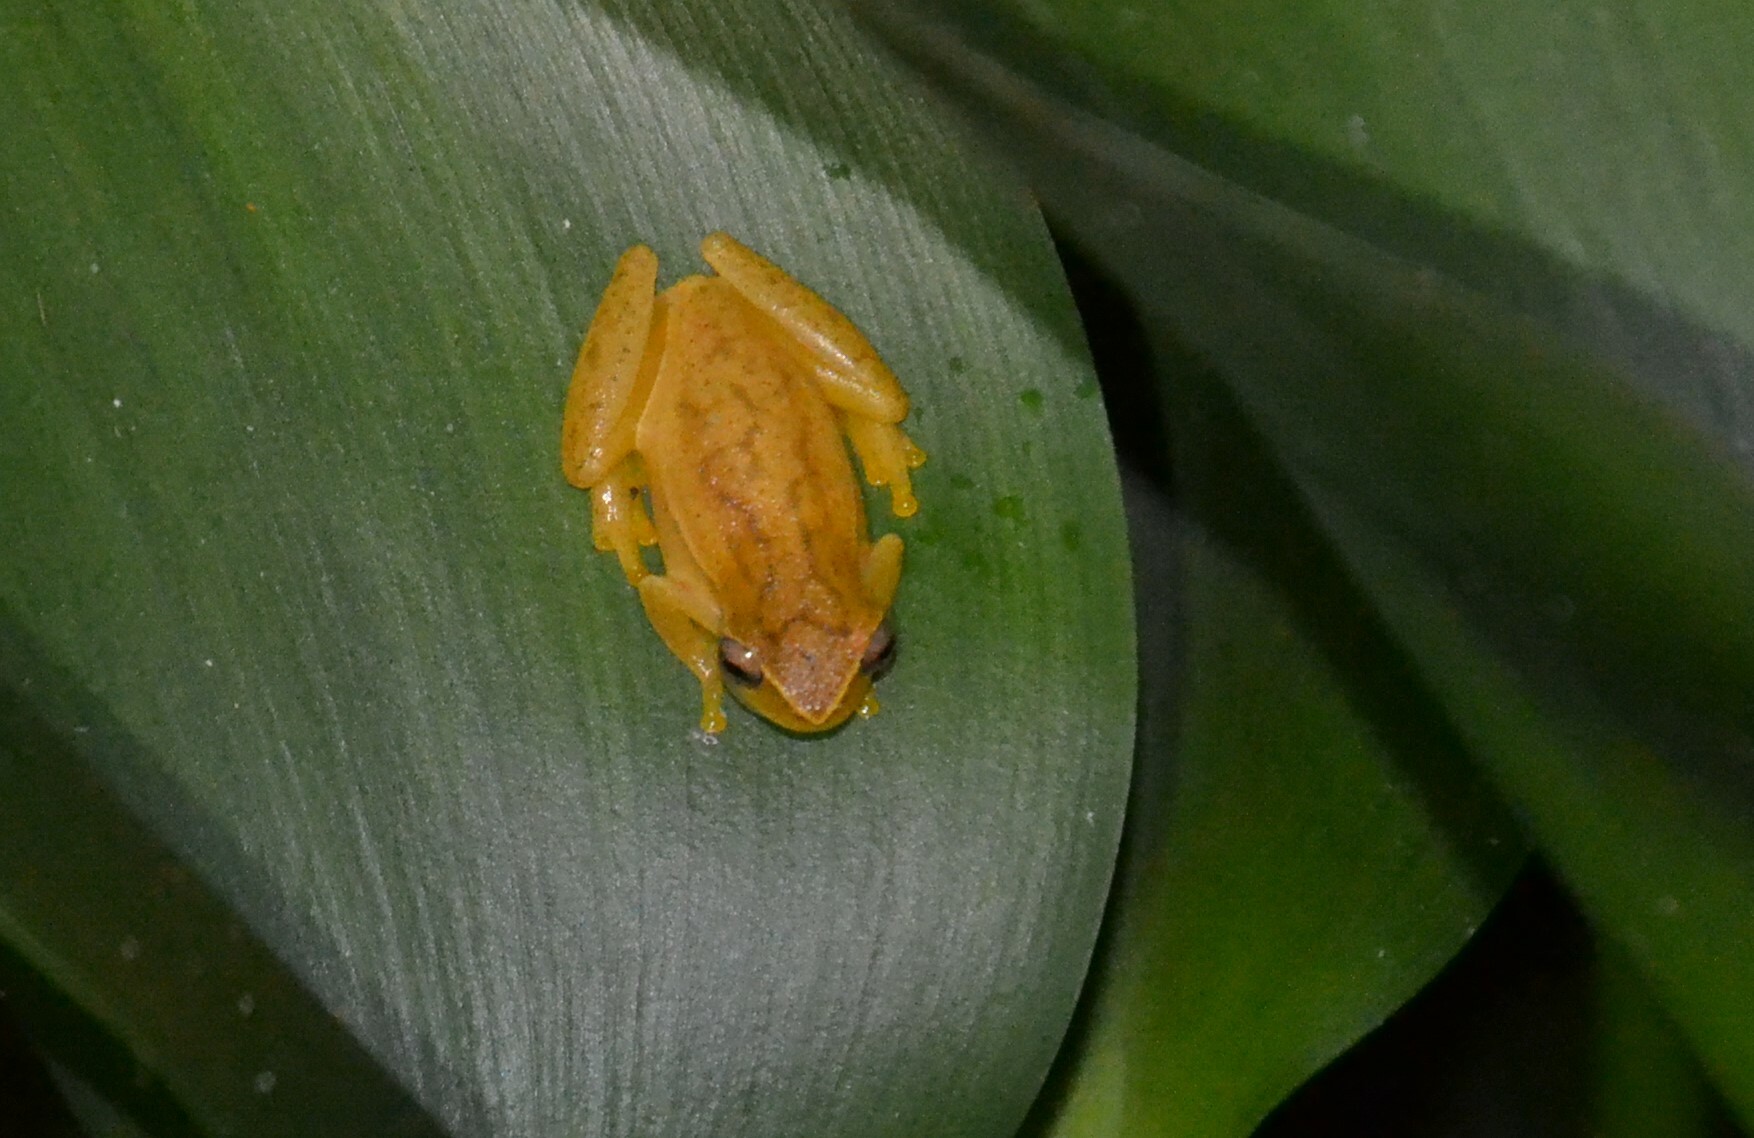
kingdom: Animalia
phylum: Chordata
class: Amphibia
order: Anura
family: Hylidae
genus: Dendropsophus
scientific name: Dendropsophus microcephalus
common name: Small-headed treefrog
